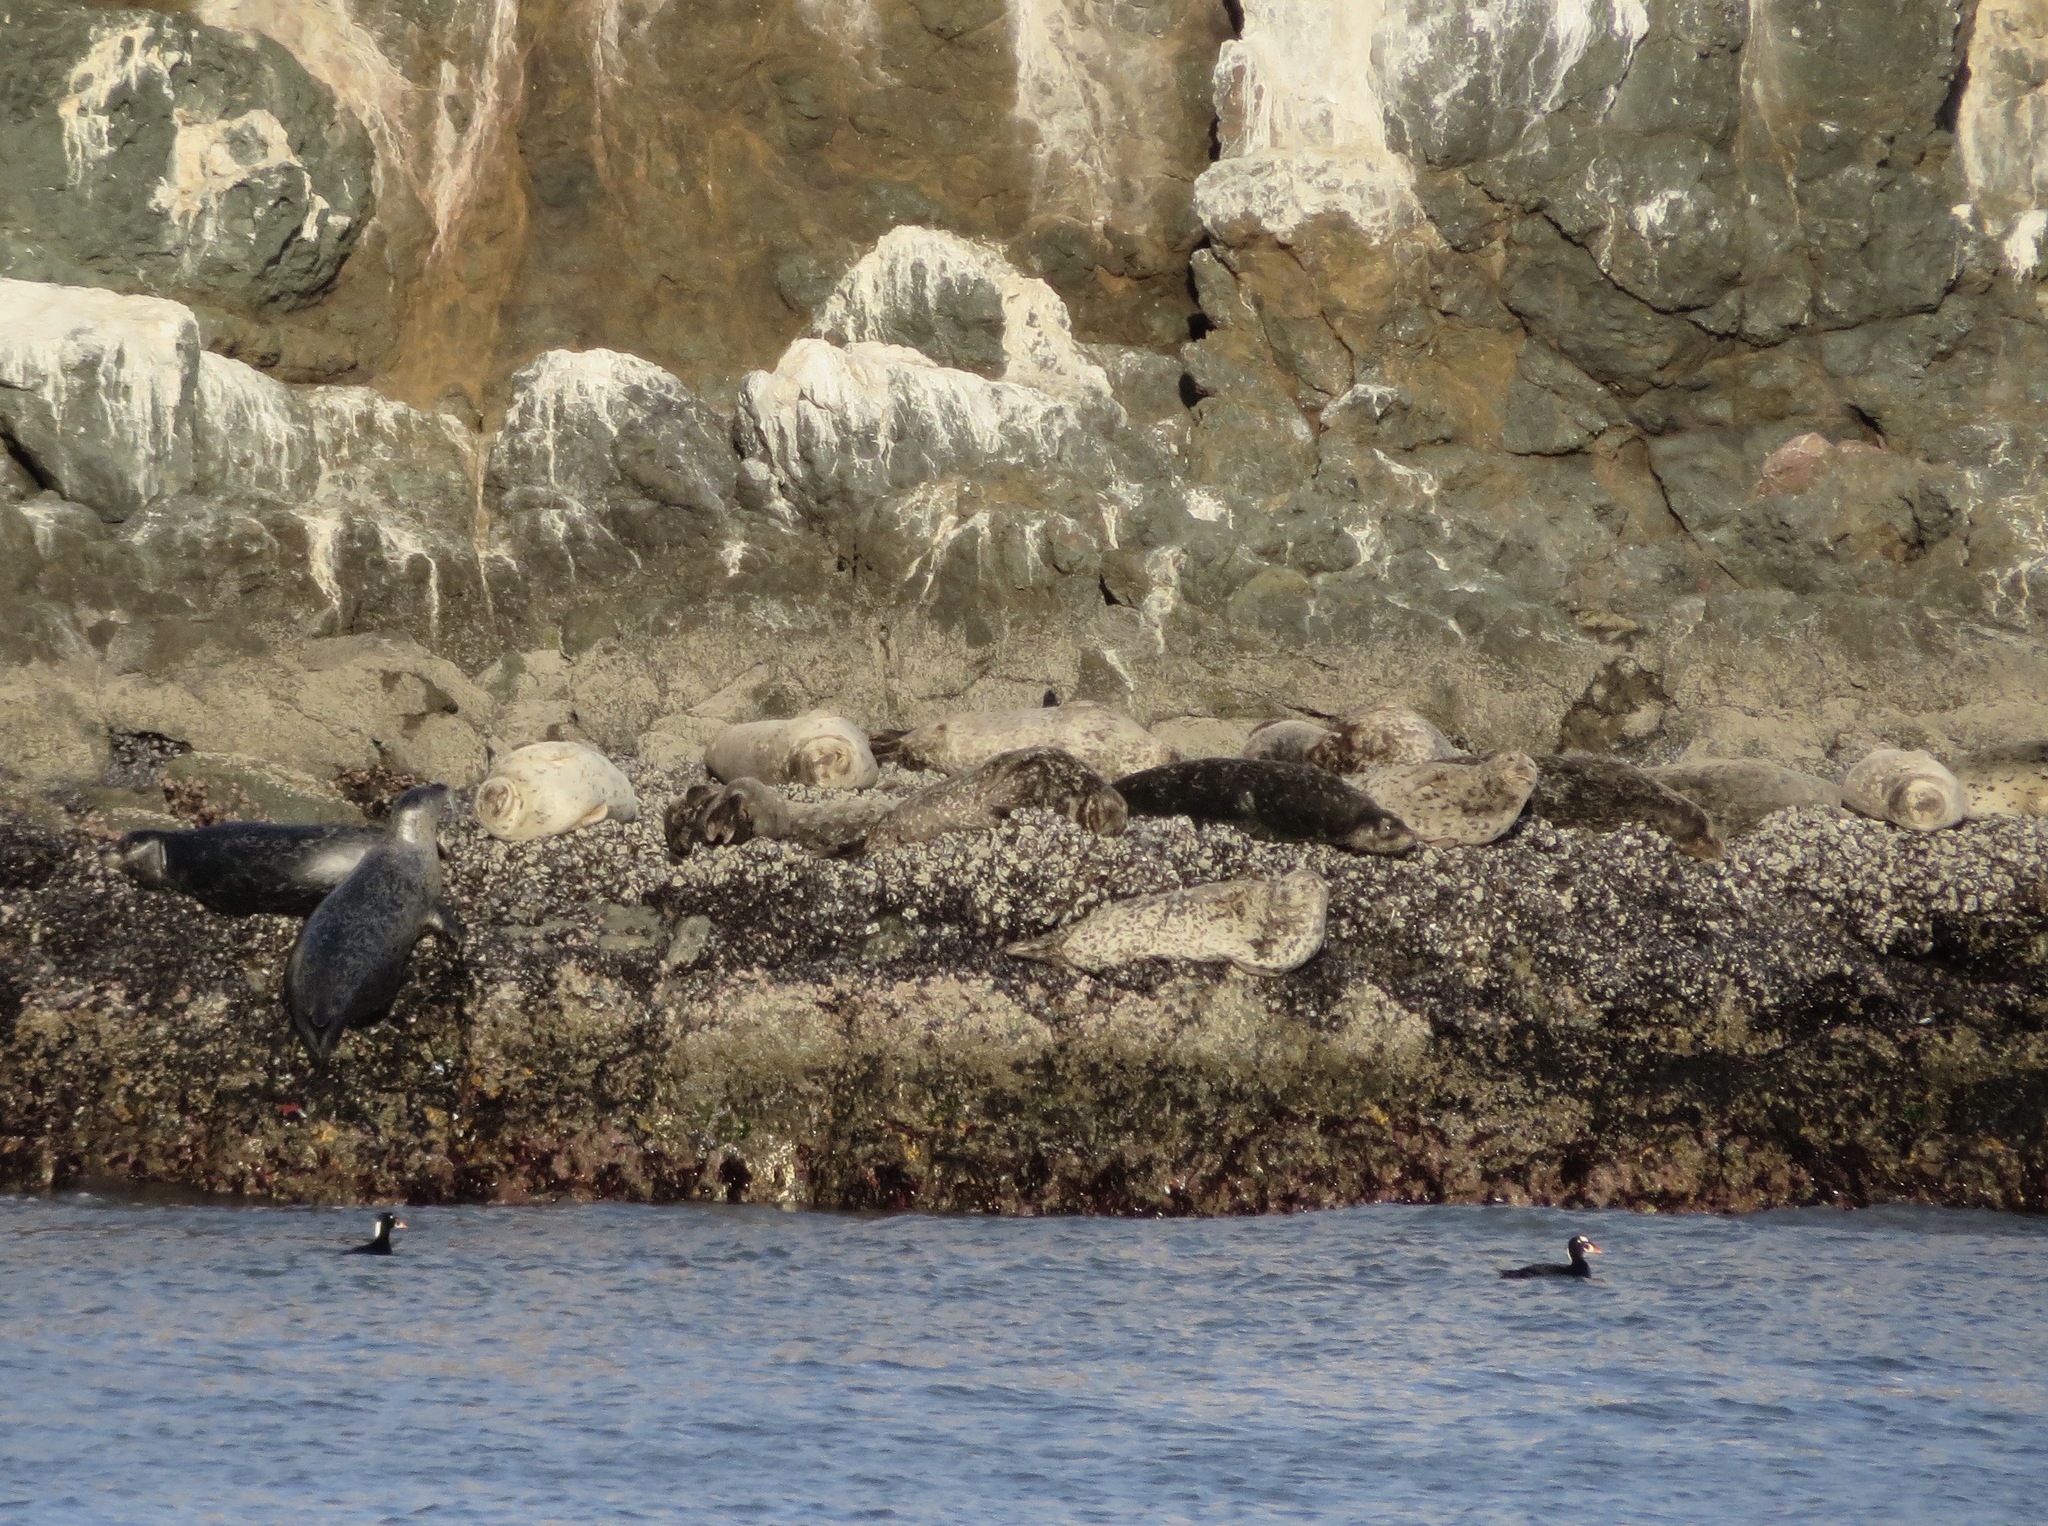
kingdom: Animalia
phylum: Chordata
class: Mammalia
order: Carnivora
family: Phocidae
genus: Phoca
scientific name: Phoca vitulina
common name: Harbor seal
